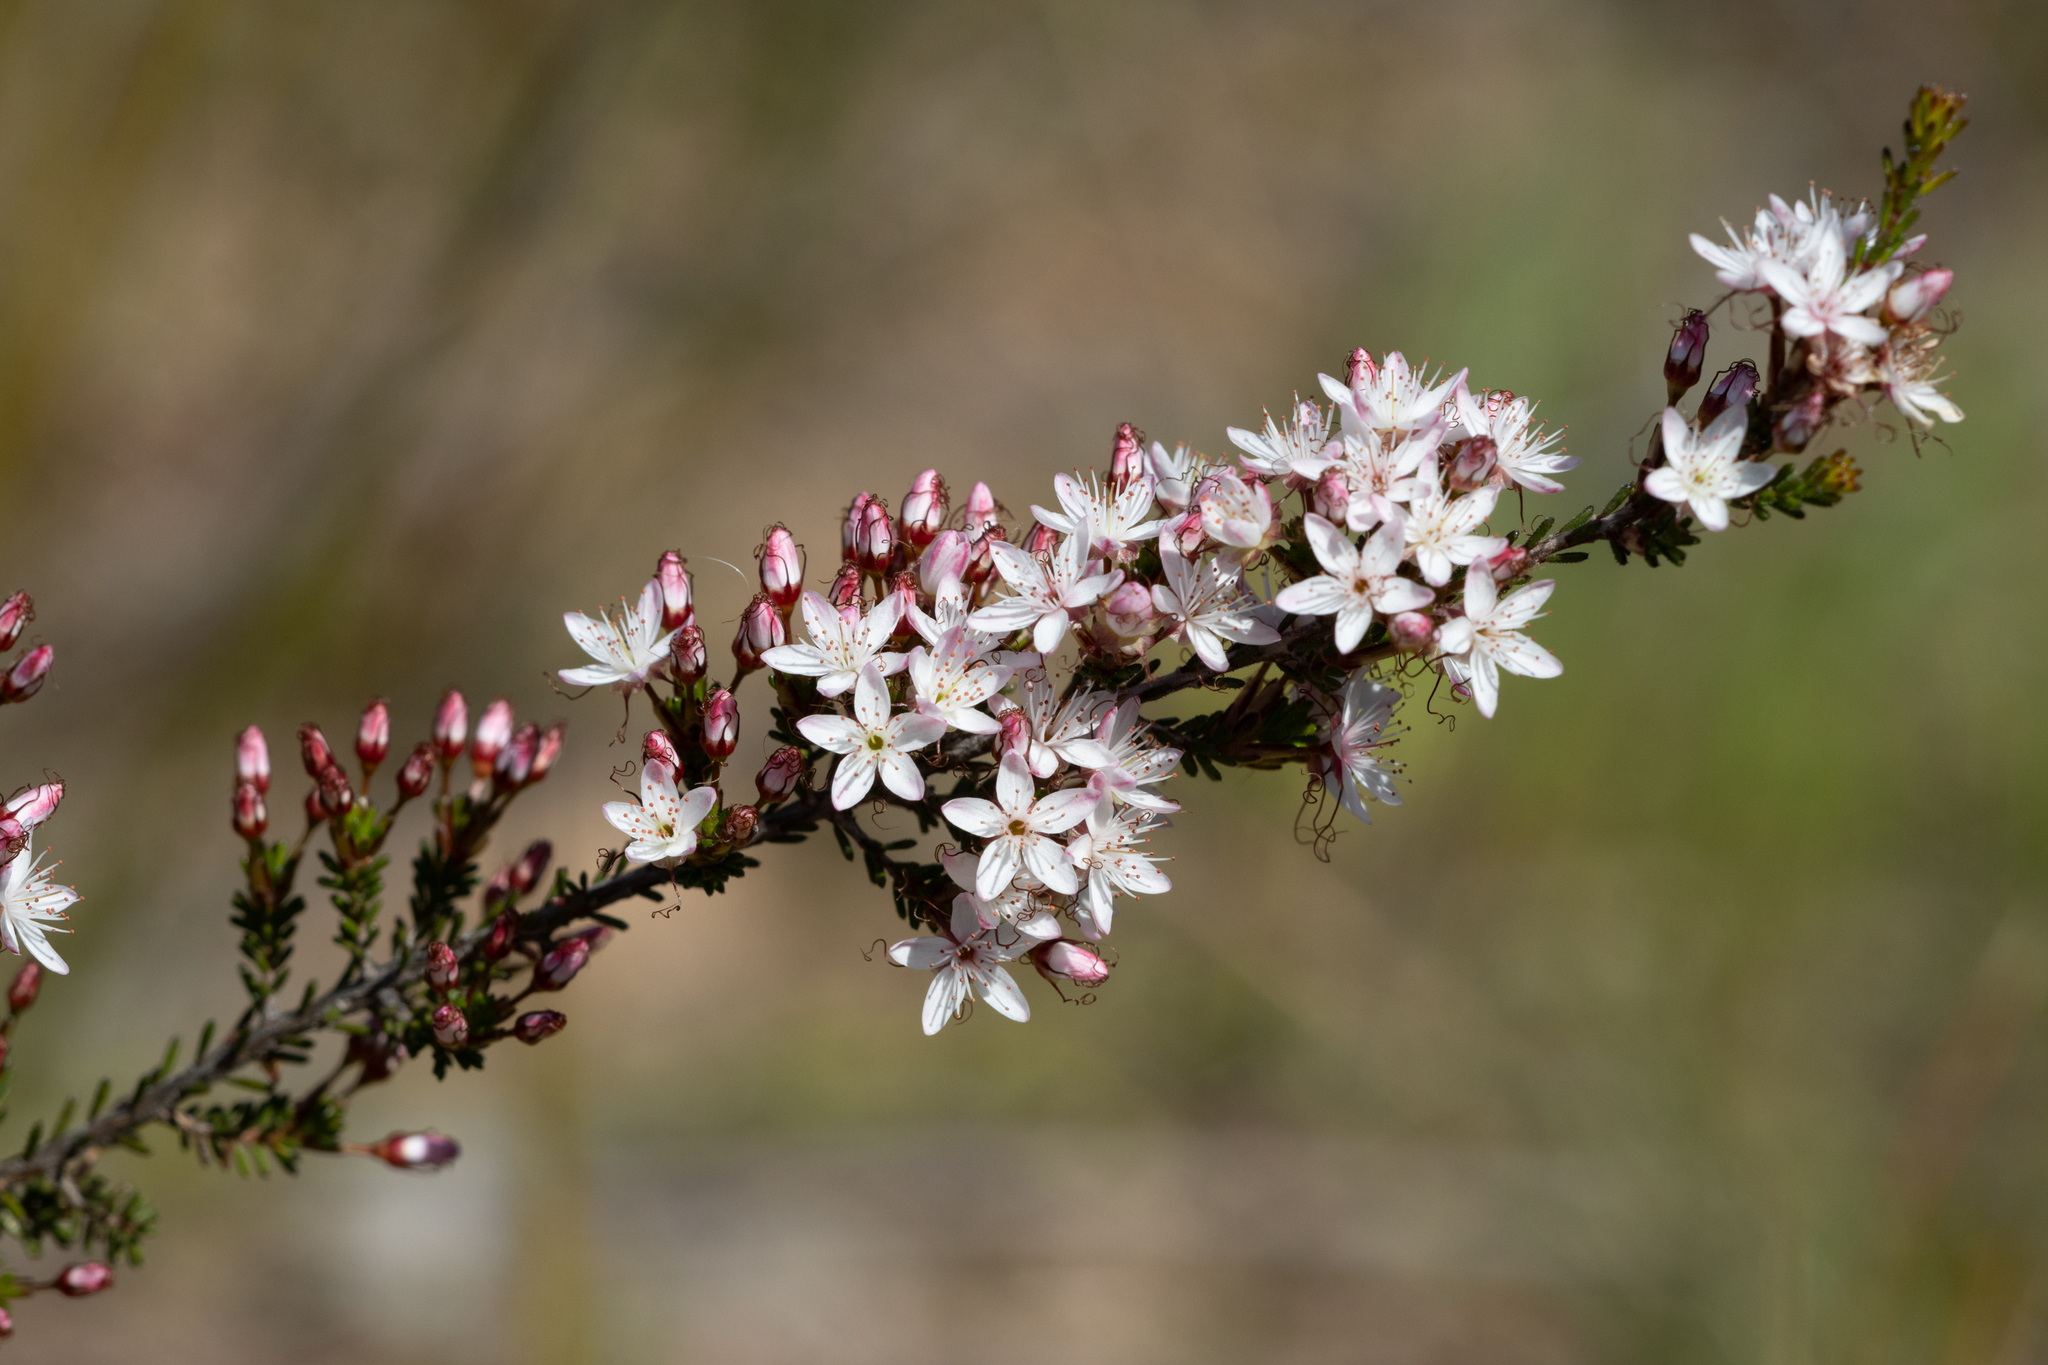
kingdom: Plantae
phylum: Tracheophyta
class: Magnoliopsida
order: Myrtales
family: Myrtaceae
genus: Calytrix
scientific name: Calytrix tetragona
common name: Common fringe myrtle
